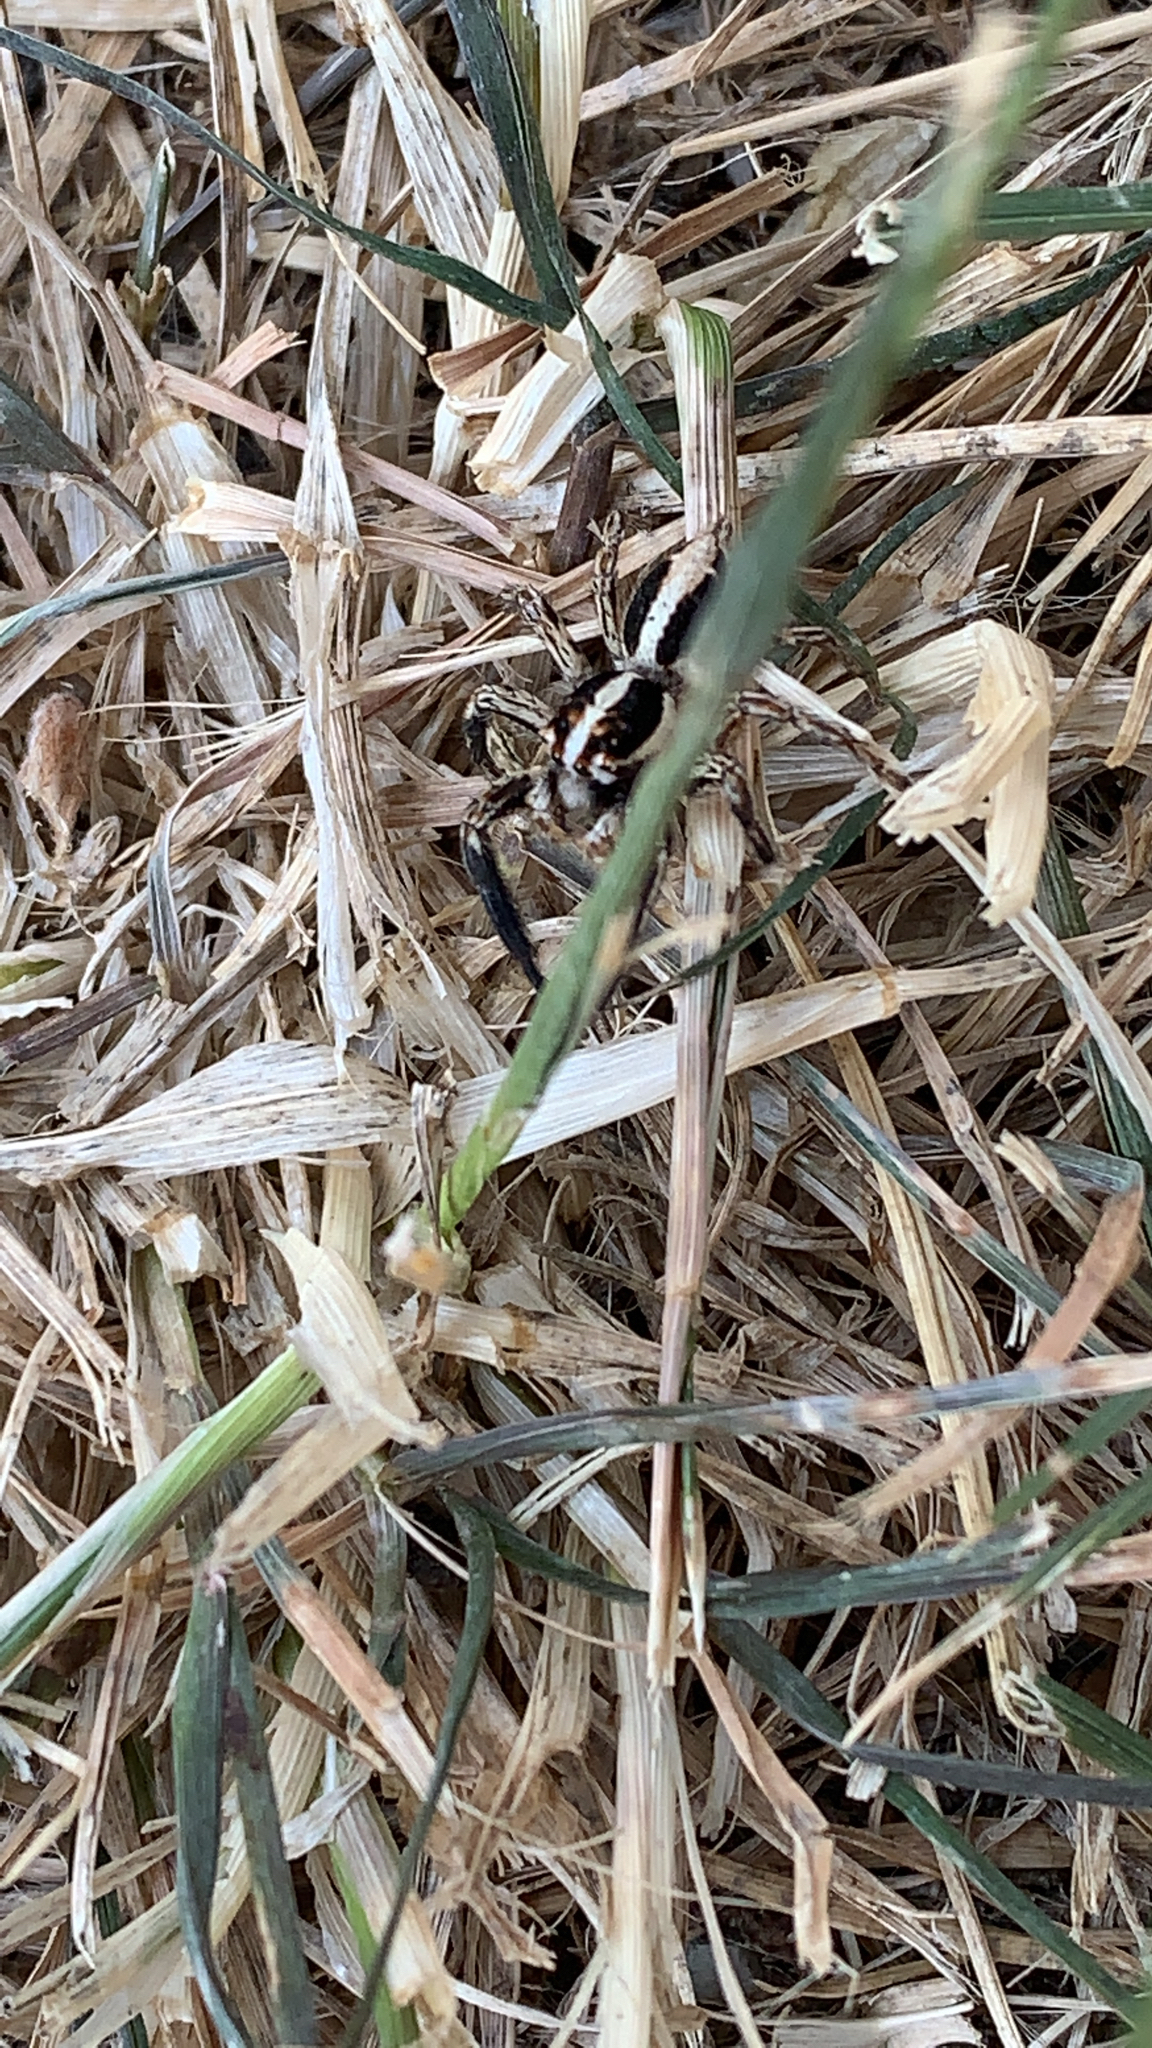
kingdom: Animalia
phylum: Arthropoda
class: Arachnida
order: Araneae
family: Salticidae
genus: Plexippus
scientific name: Plexippus paykulli
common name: Pantropical jumper
